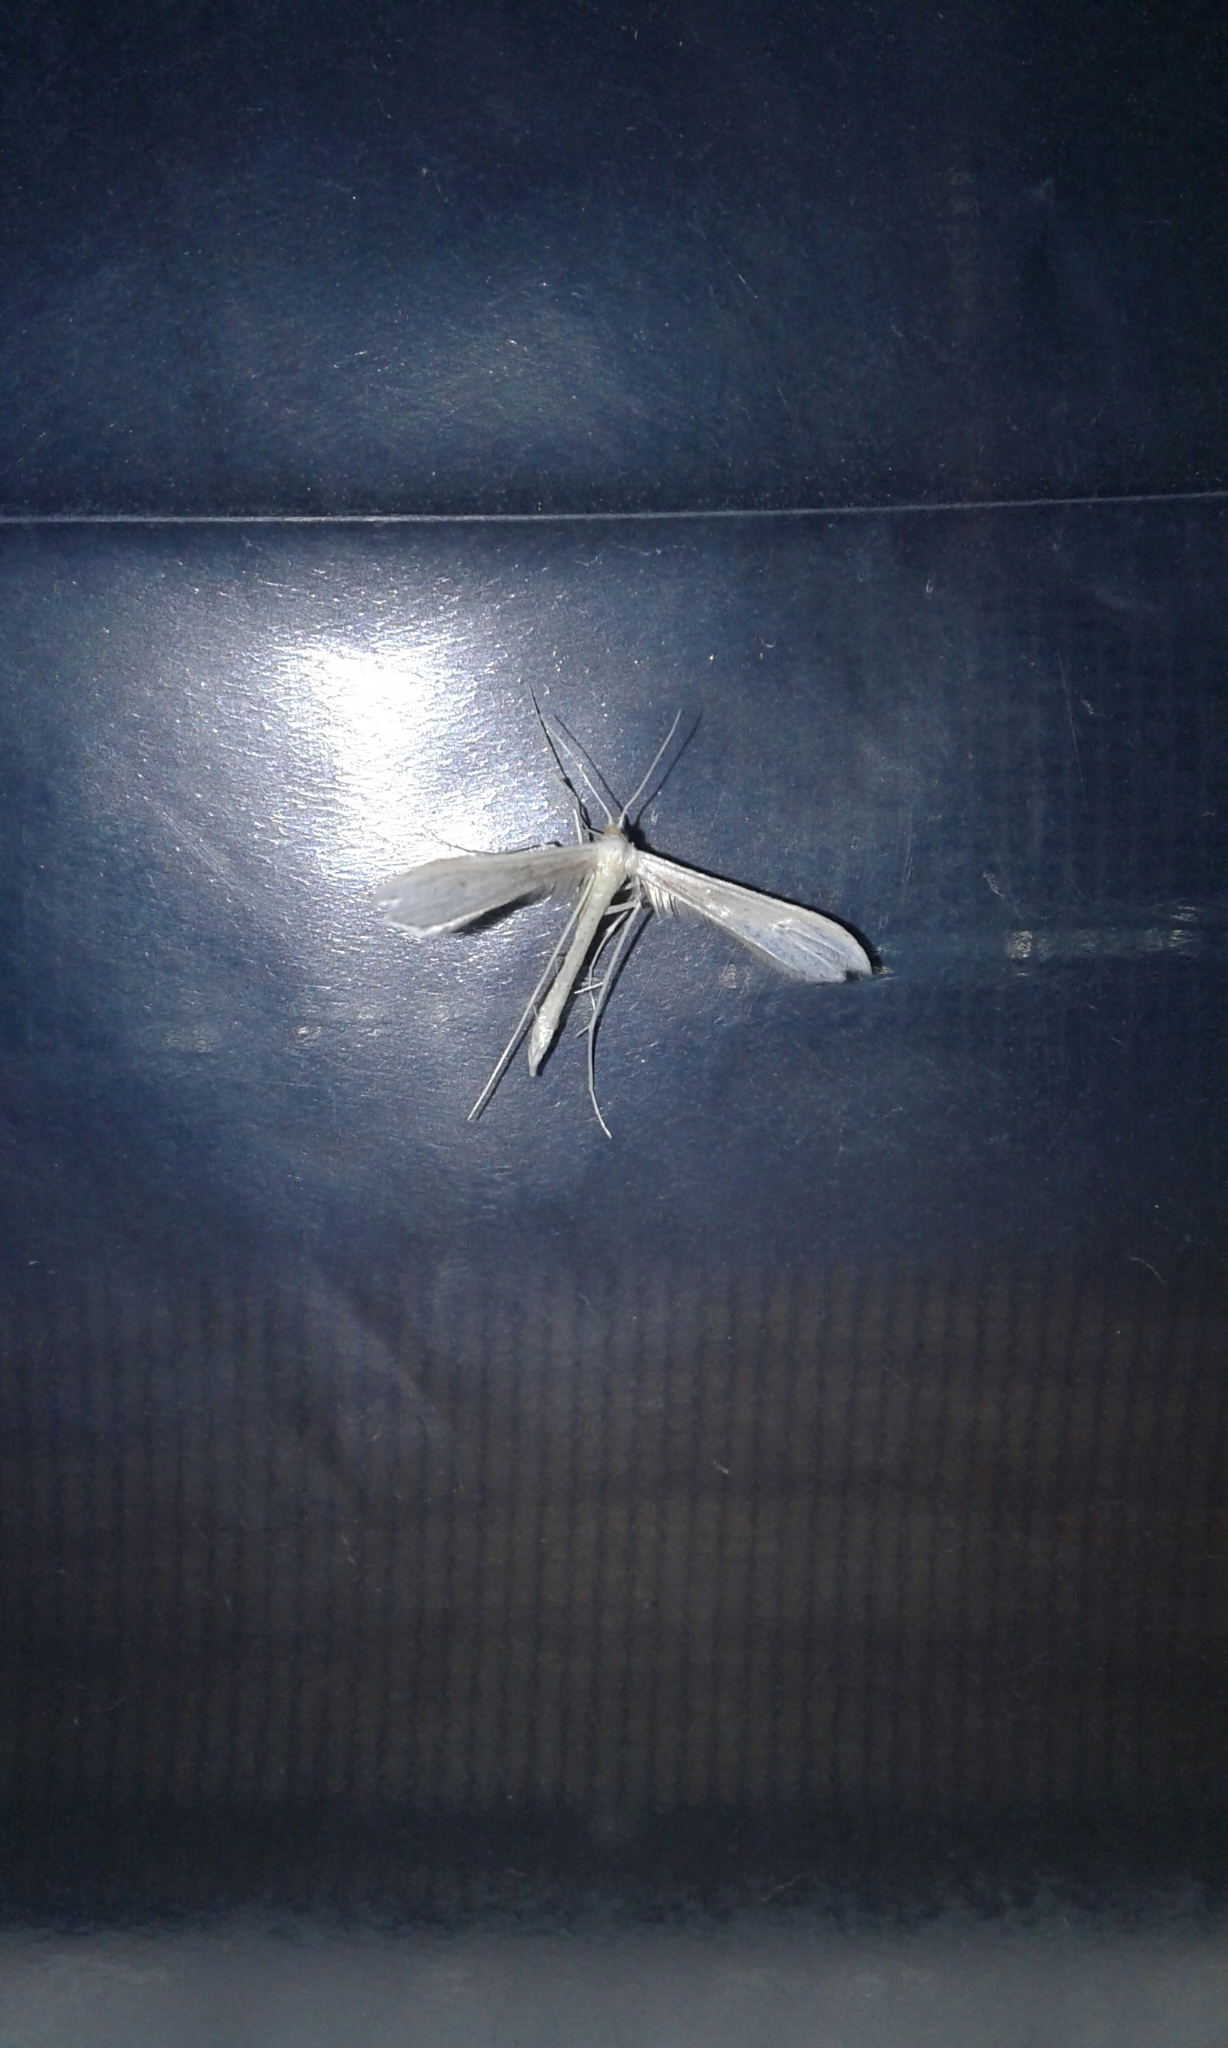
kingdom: Animalia
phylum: Arthropoda
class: Insecta
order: Lepidoptera
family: Pterophoridae
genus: Hellinsia
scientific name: Hellinsia homodactylus
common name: Plain plume moth
